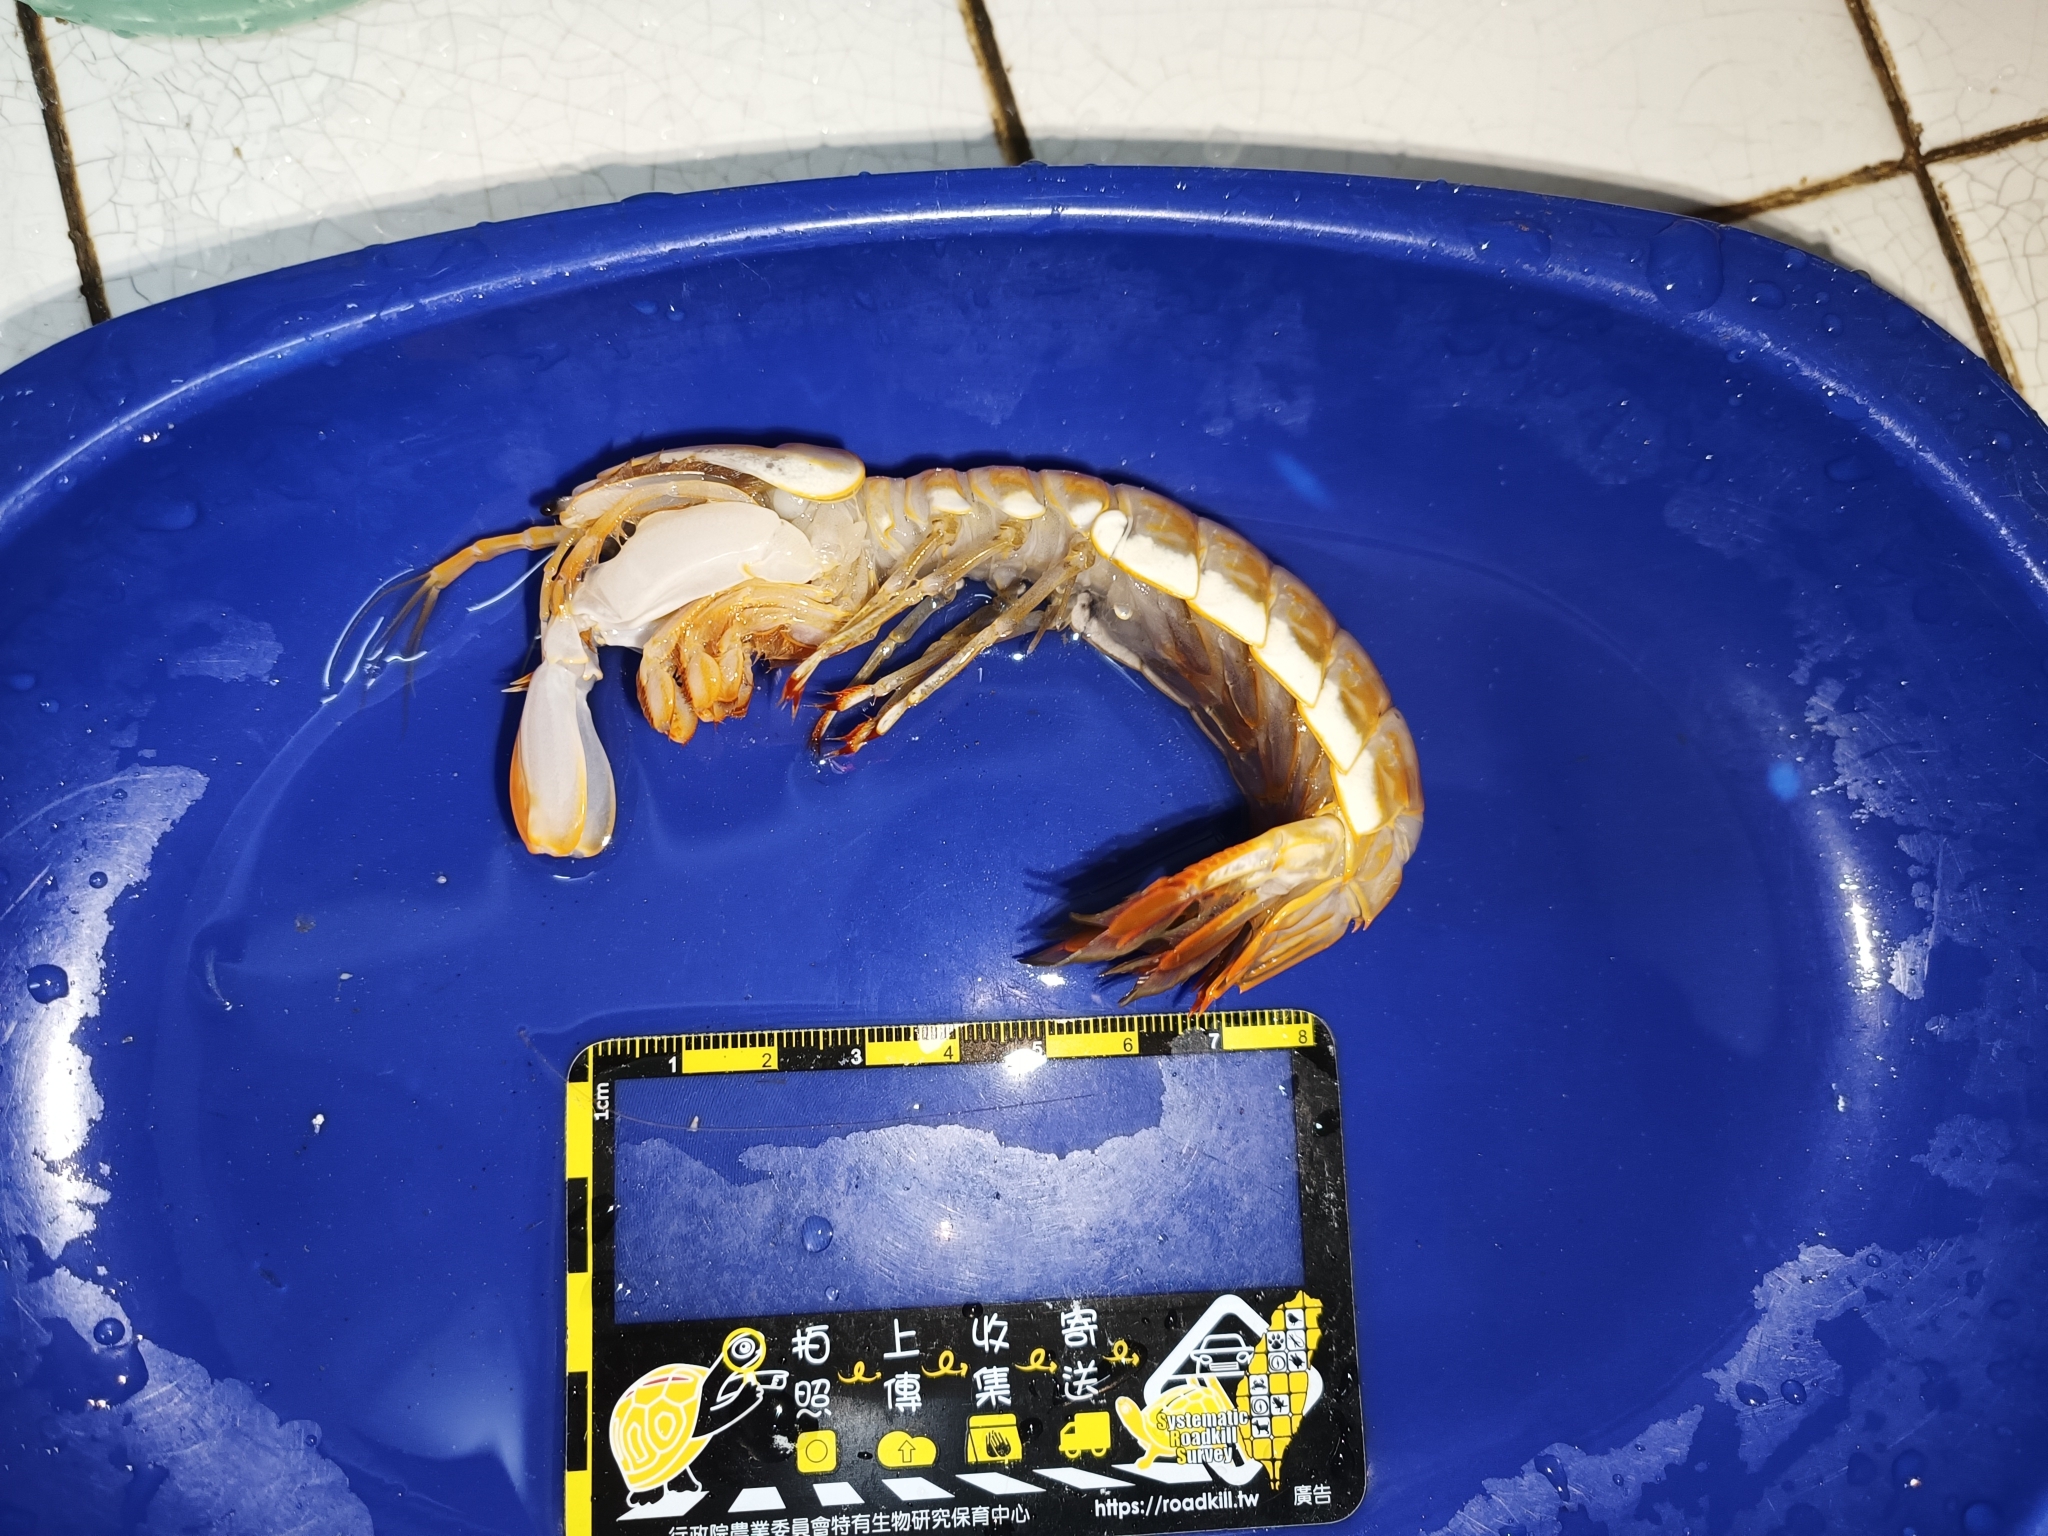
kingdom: Animalia
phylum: Arthropoda
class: Malacostraca
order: Stomatopoda
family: Parasquillidae
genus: Faughnia
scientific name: Faughnia formosae
